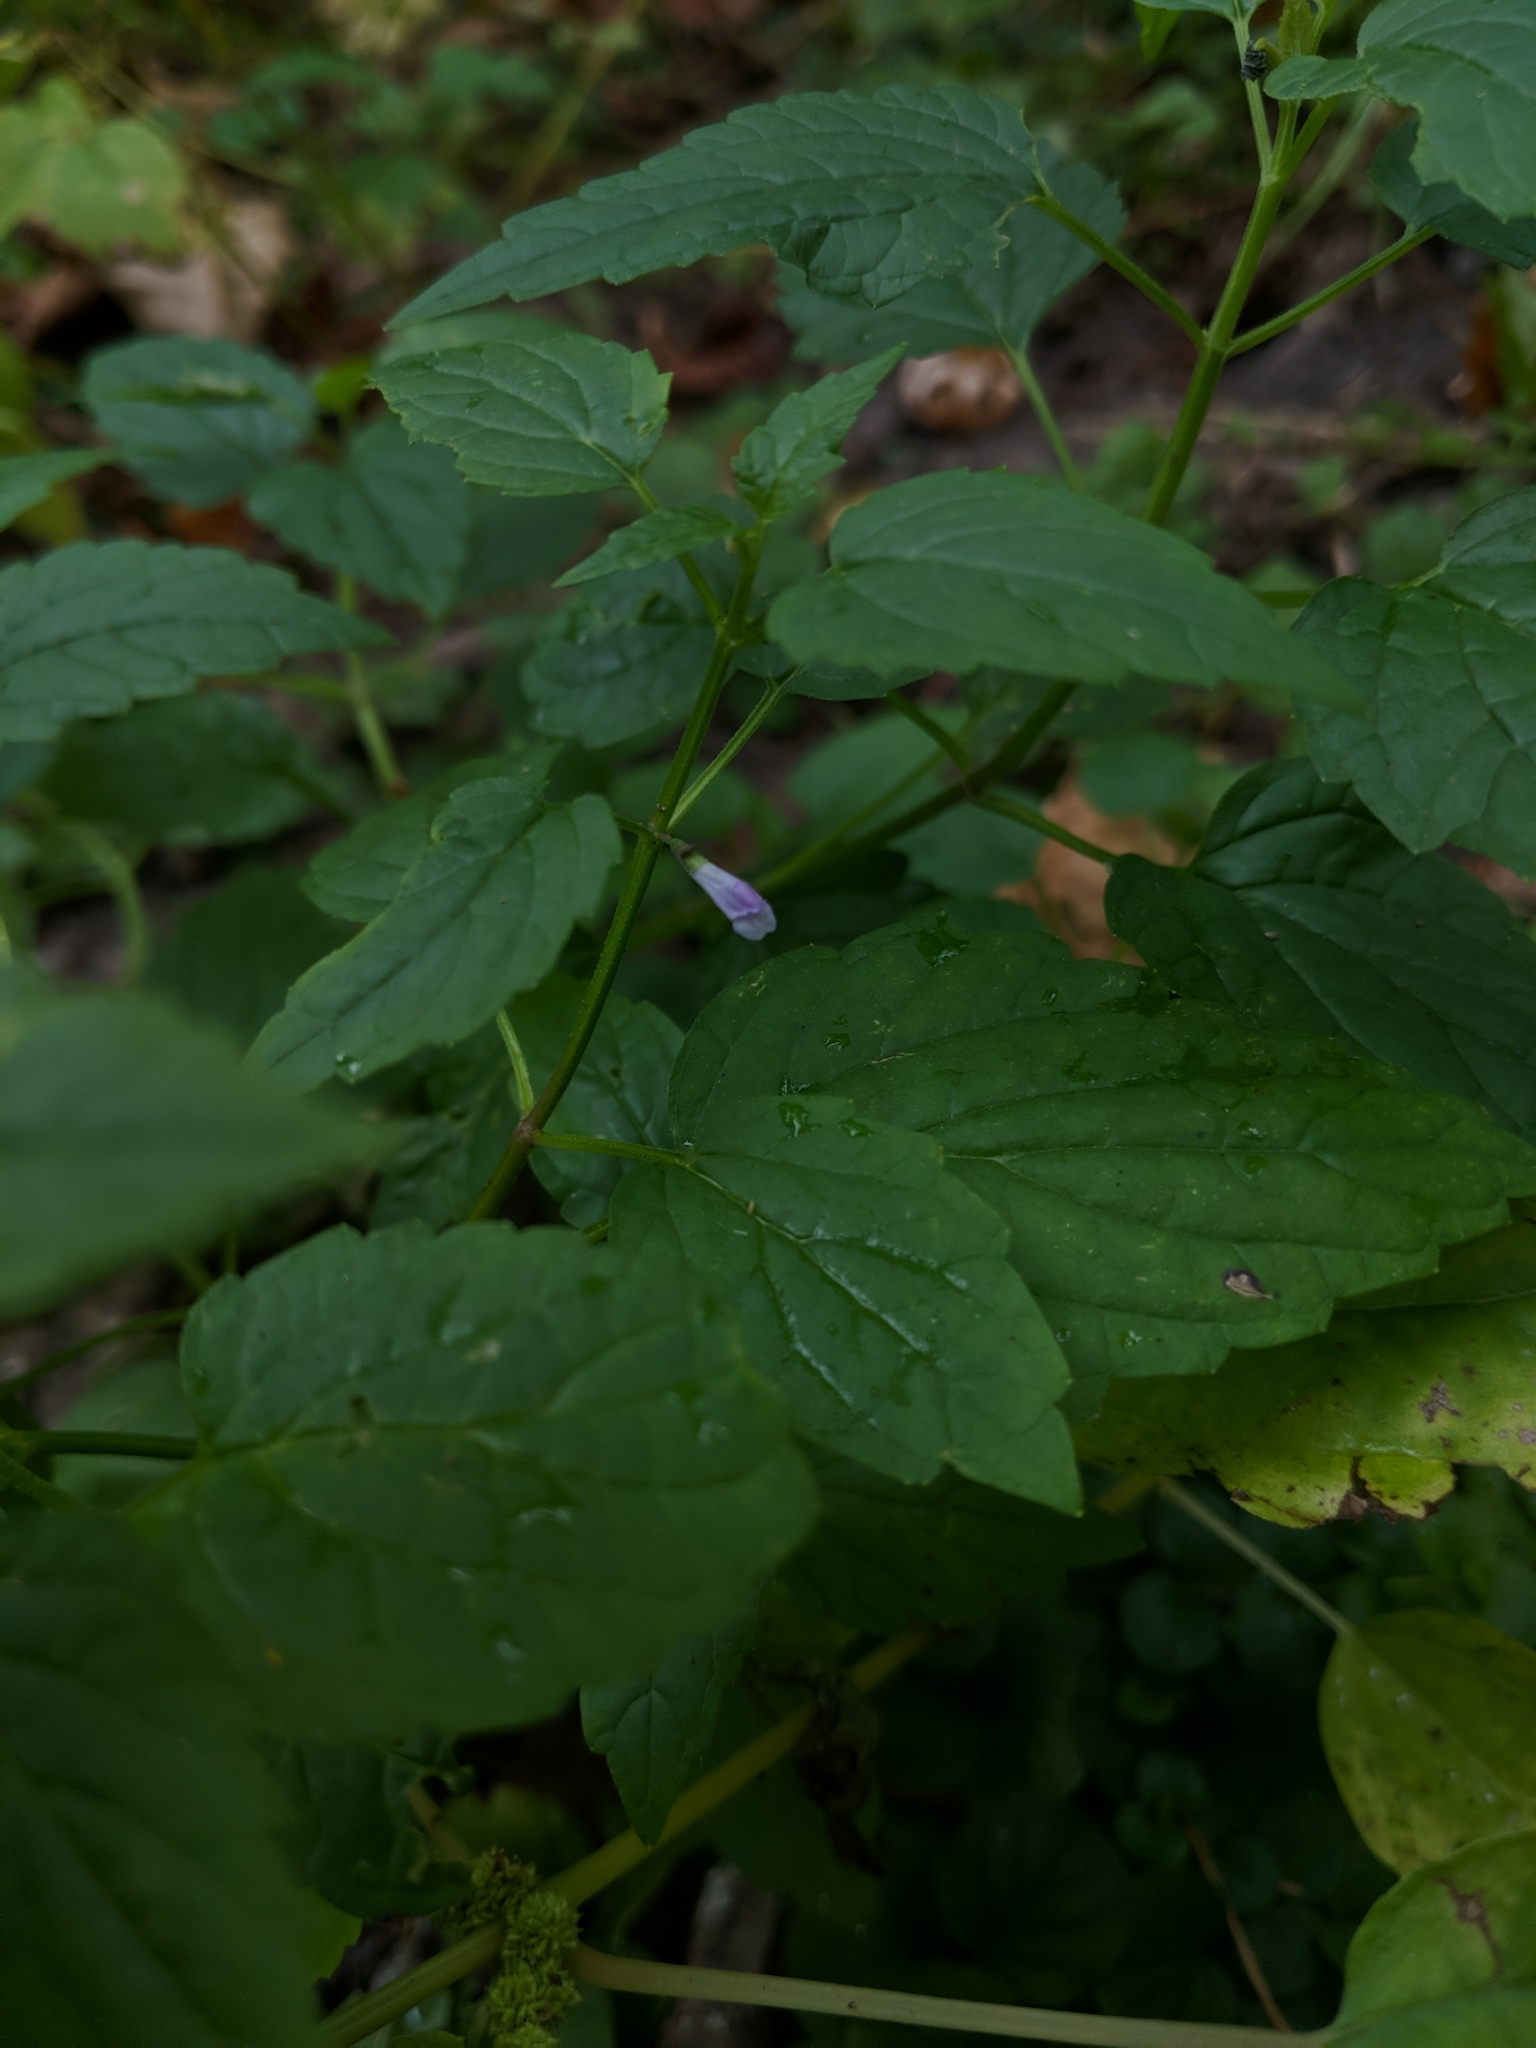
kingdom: Plantae
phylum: Tracheophyta
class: Magnoliopsida
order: Lamiales
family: Lamiaceae
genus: Scutellaria
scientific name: Scutellaria lateriflora
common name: Blue skullcap
